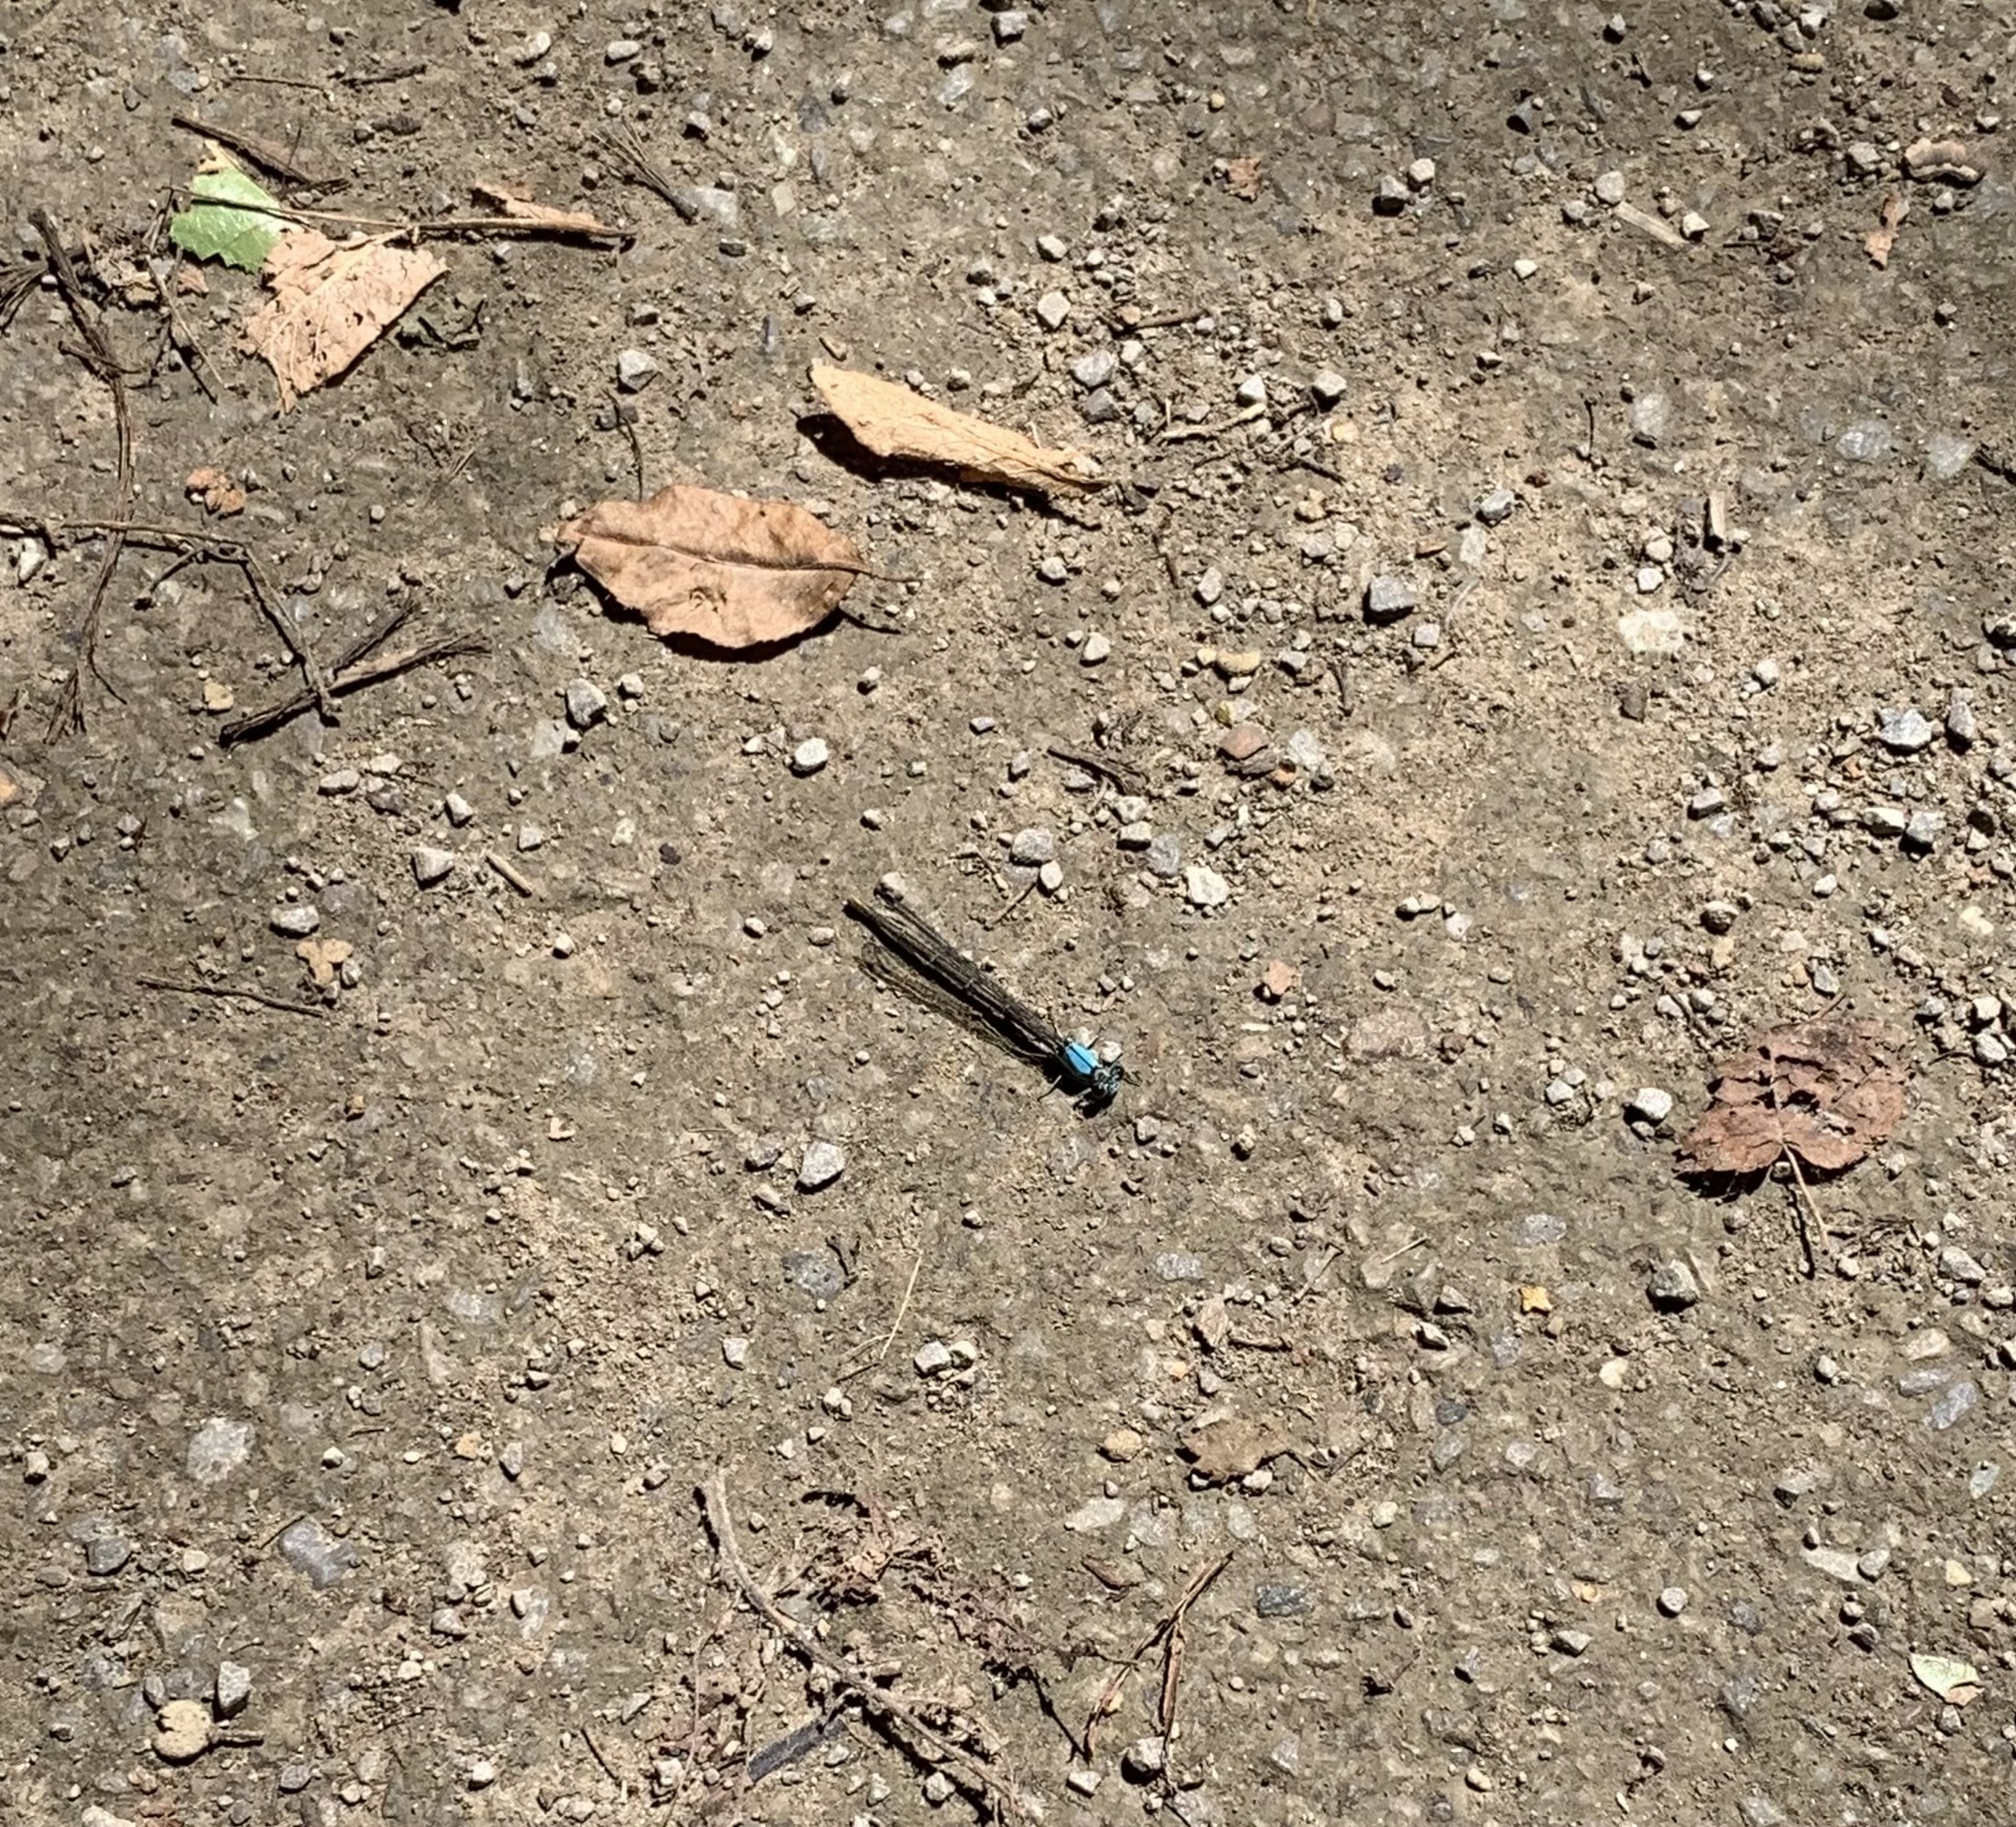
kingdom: Animalia
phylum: Arthropoda
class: Insecta
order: Odonata
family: Coenagrionidae
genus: Argia
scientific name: Argia apicalis
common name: Blue-fronted dancer
